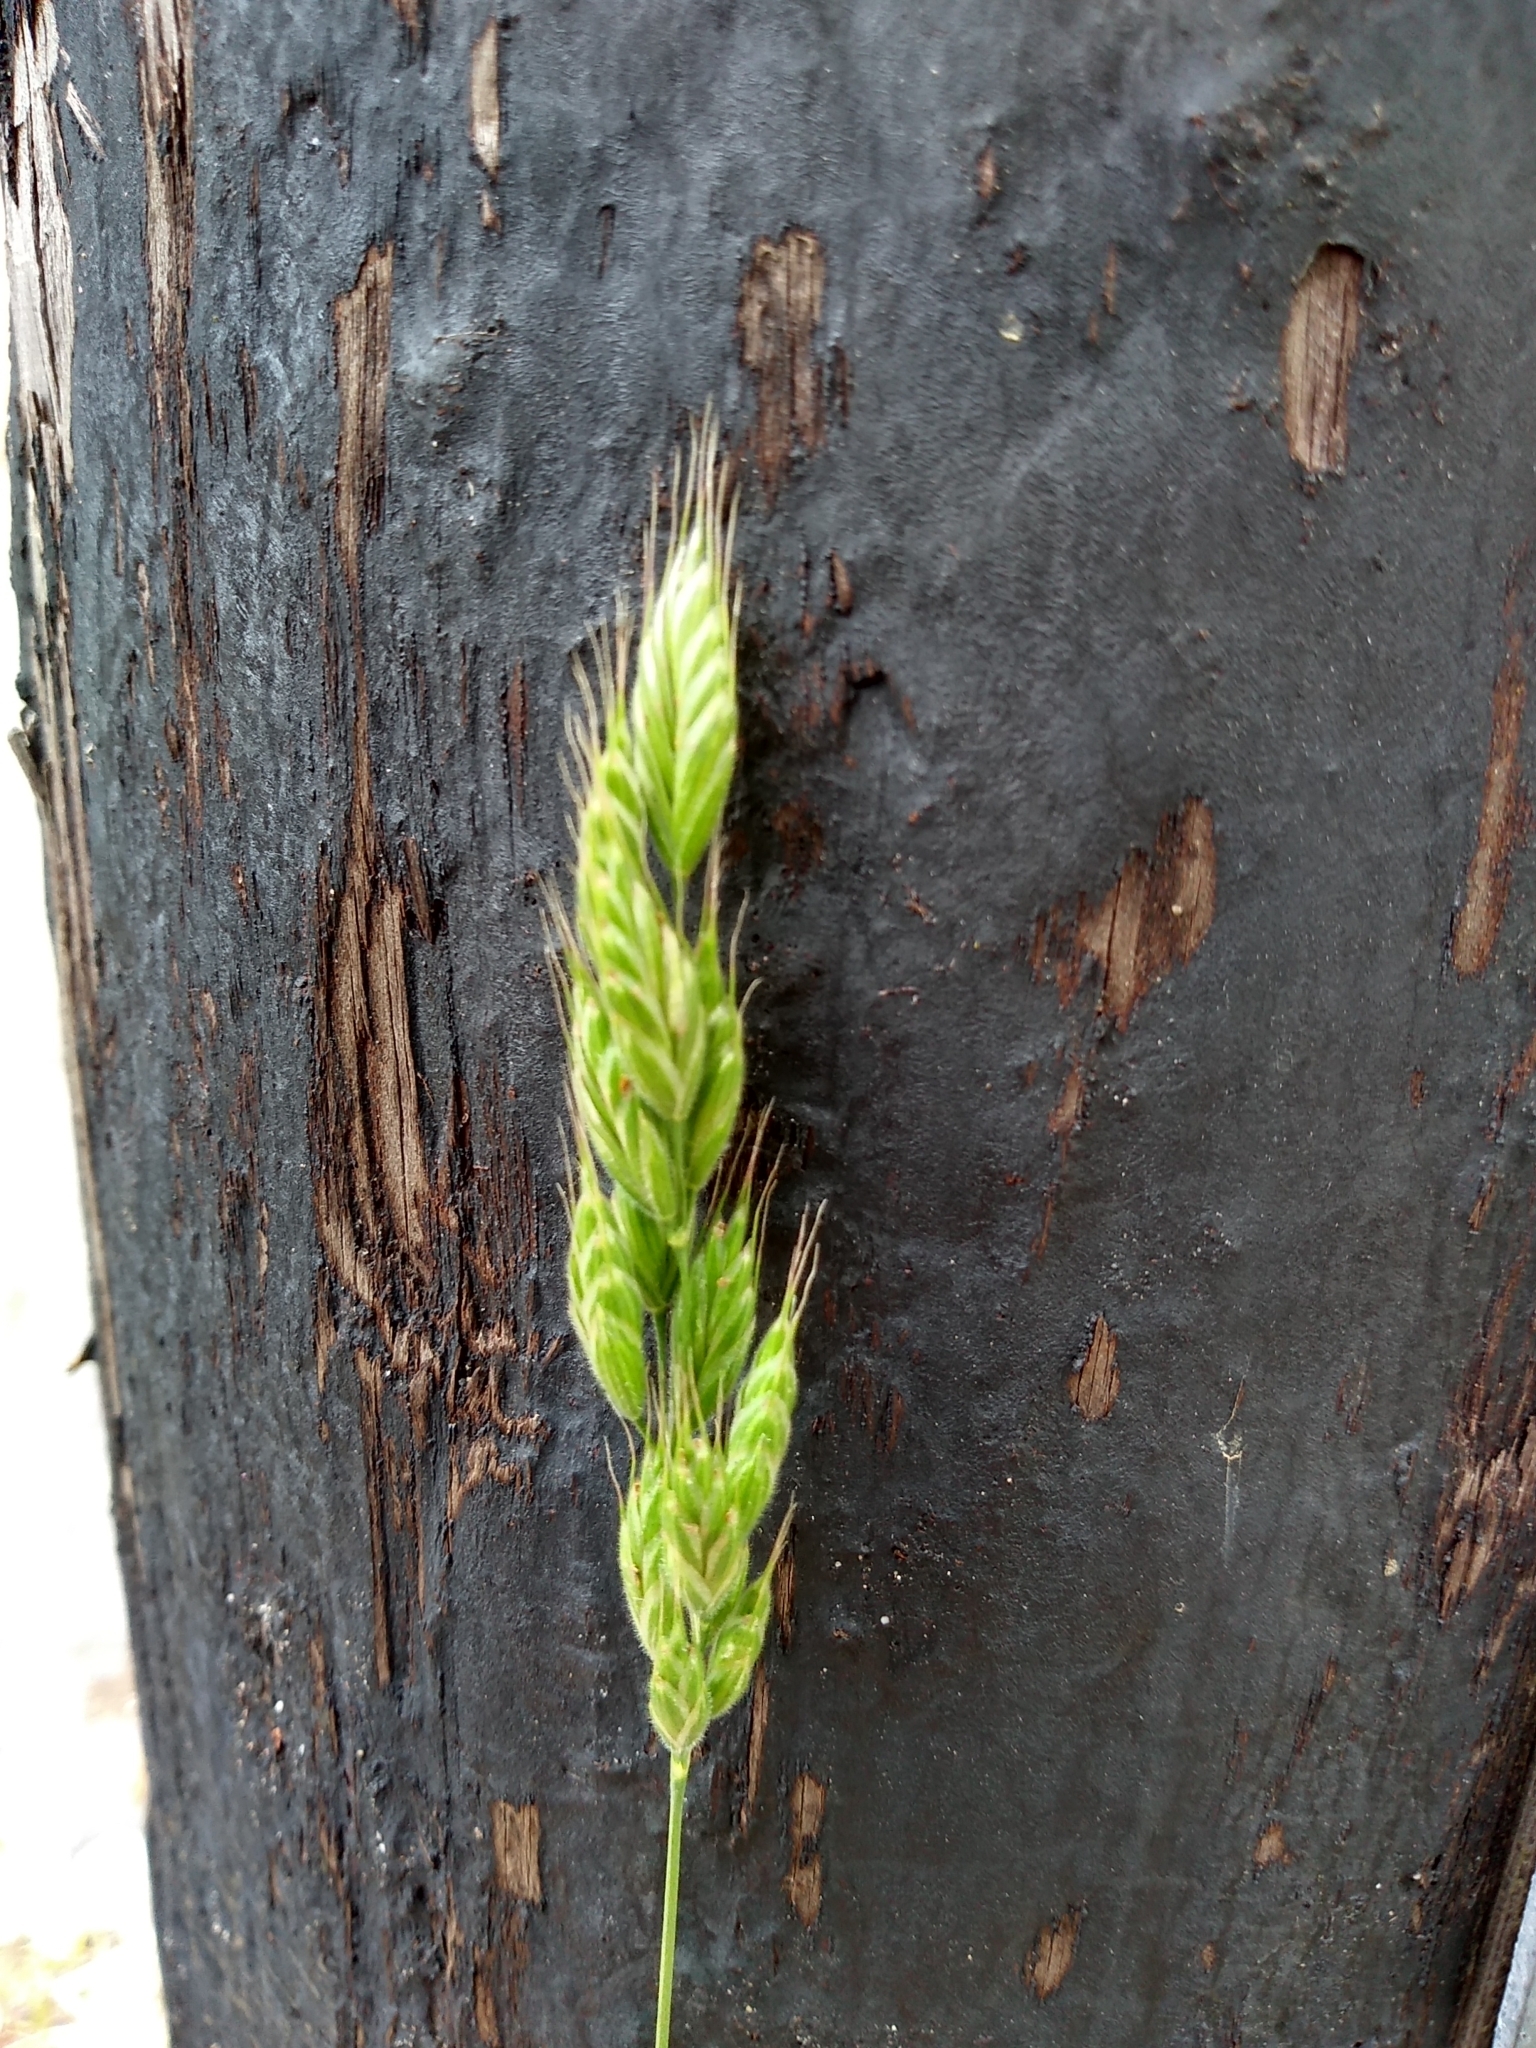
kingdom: Plantae
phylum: Tracheophyta
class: Liliopsida
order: Poales
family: Poaceae
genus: Bromus
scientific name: Bromus hordeaceus
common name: Soft brome
